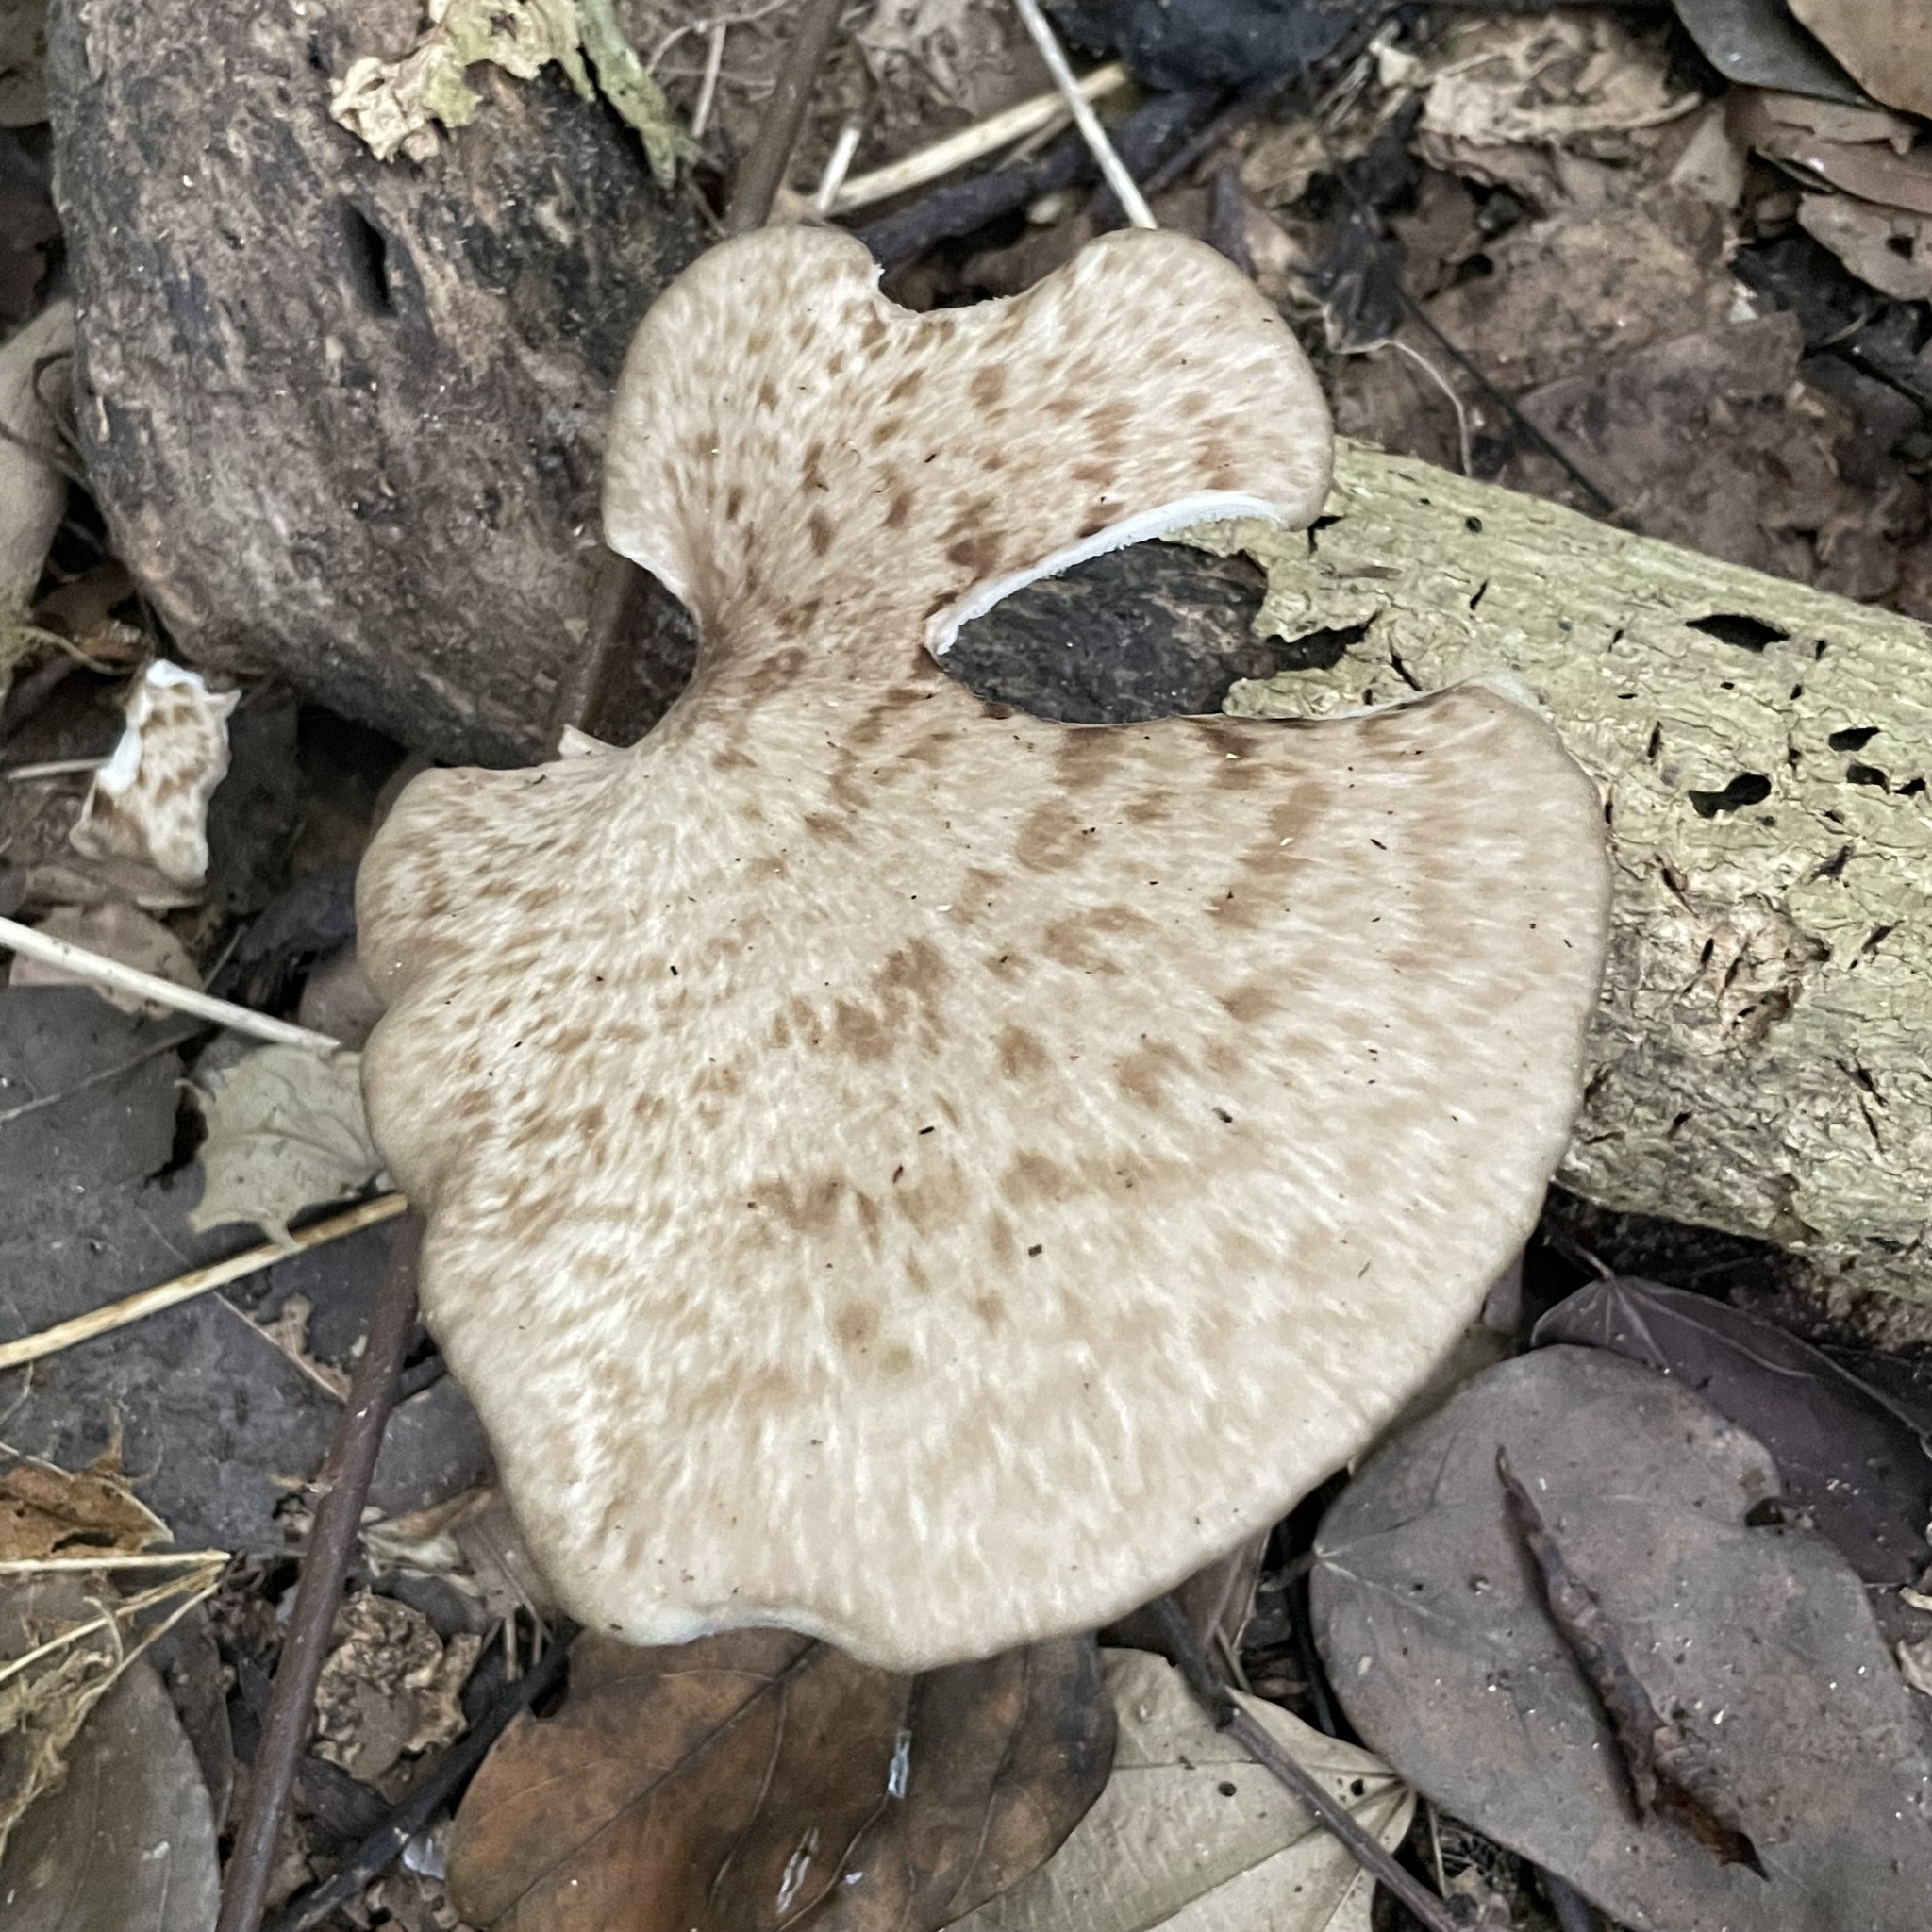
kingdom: Fungi
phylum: Basidiomycota
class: Agaricomycetes
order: Polyporales
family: Polyporaceae
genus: Polyporus
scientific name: Polyporus tuberaster
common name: Tuberous polypore
